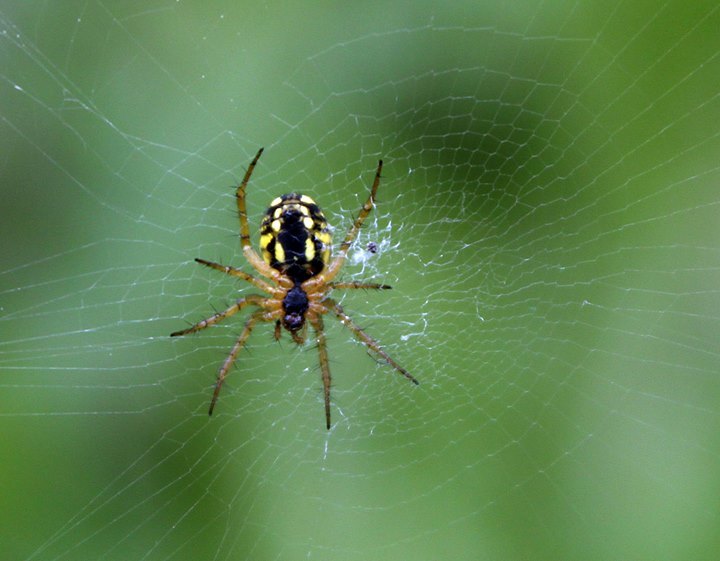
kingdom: Animalia
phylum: Arthropoda
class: Arachnida
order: Araneae
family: Araneidae
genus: Mangora
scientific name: Mangora acalypha
